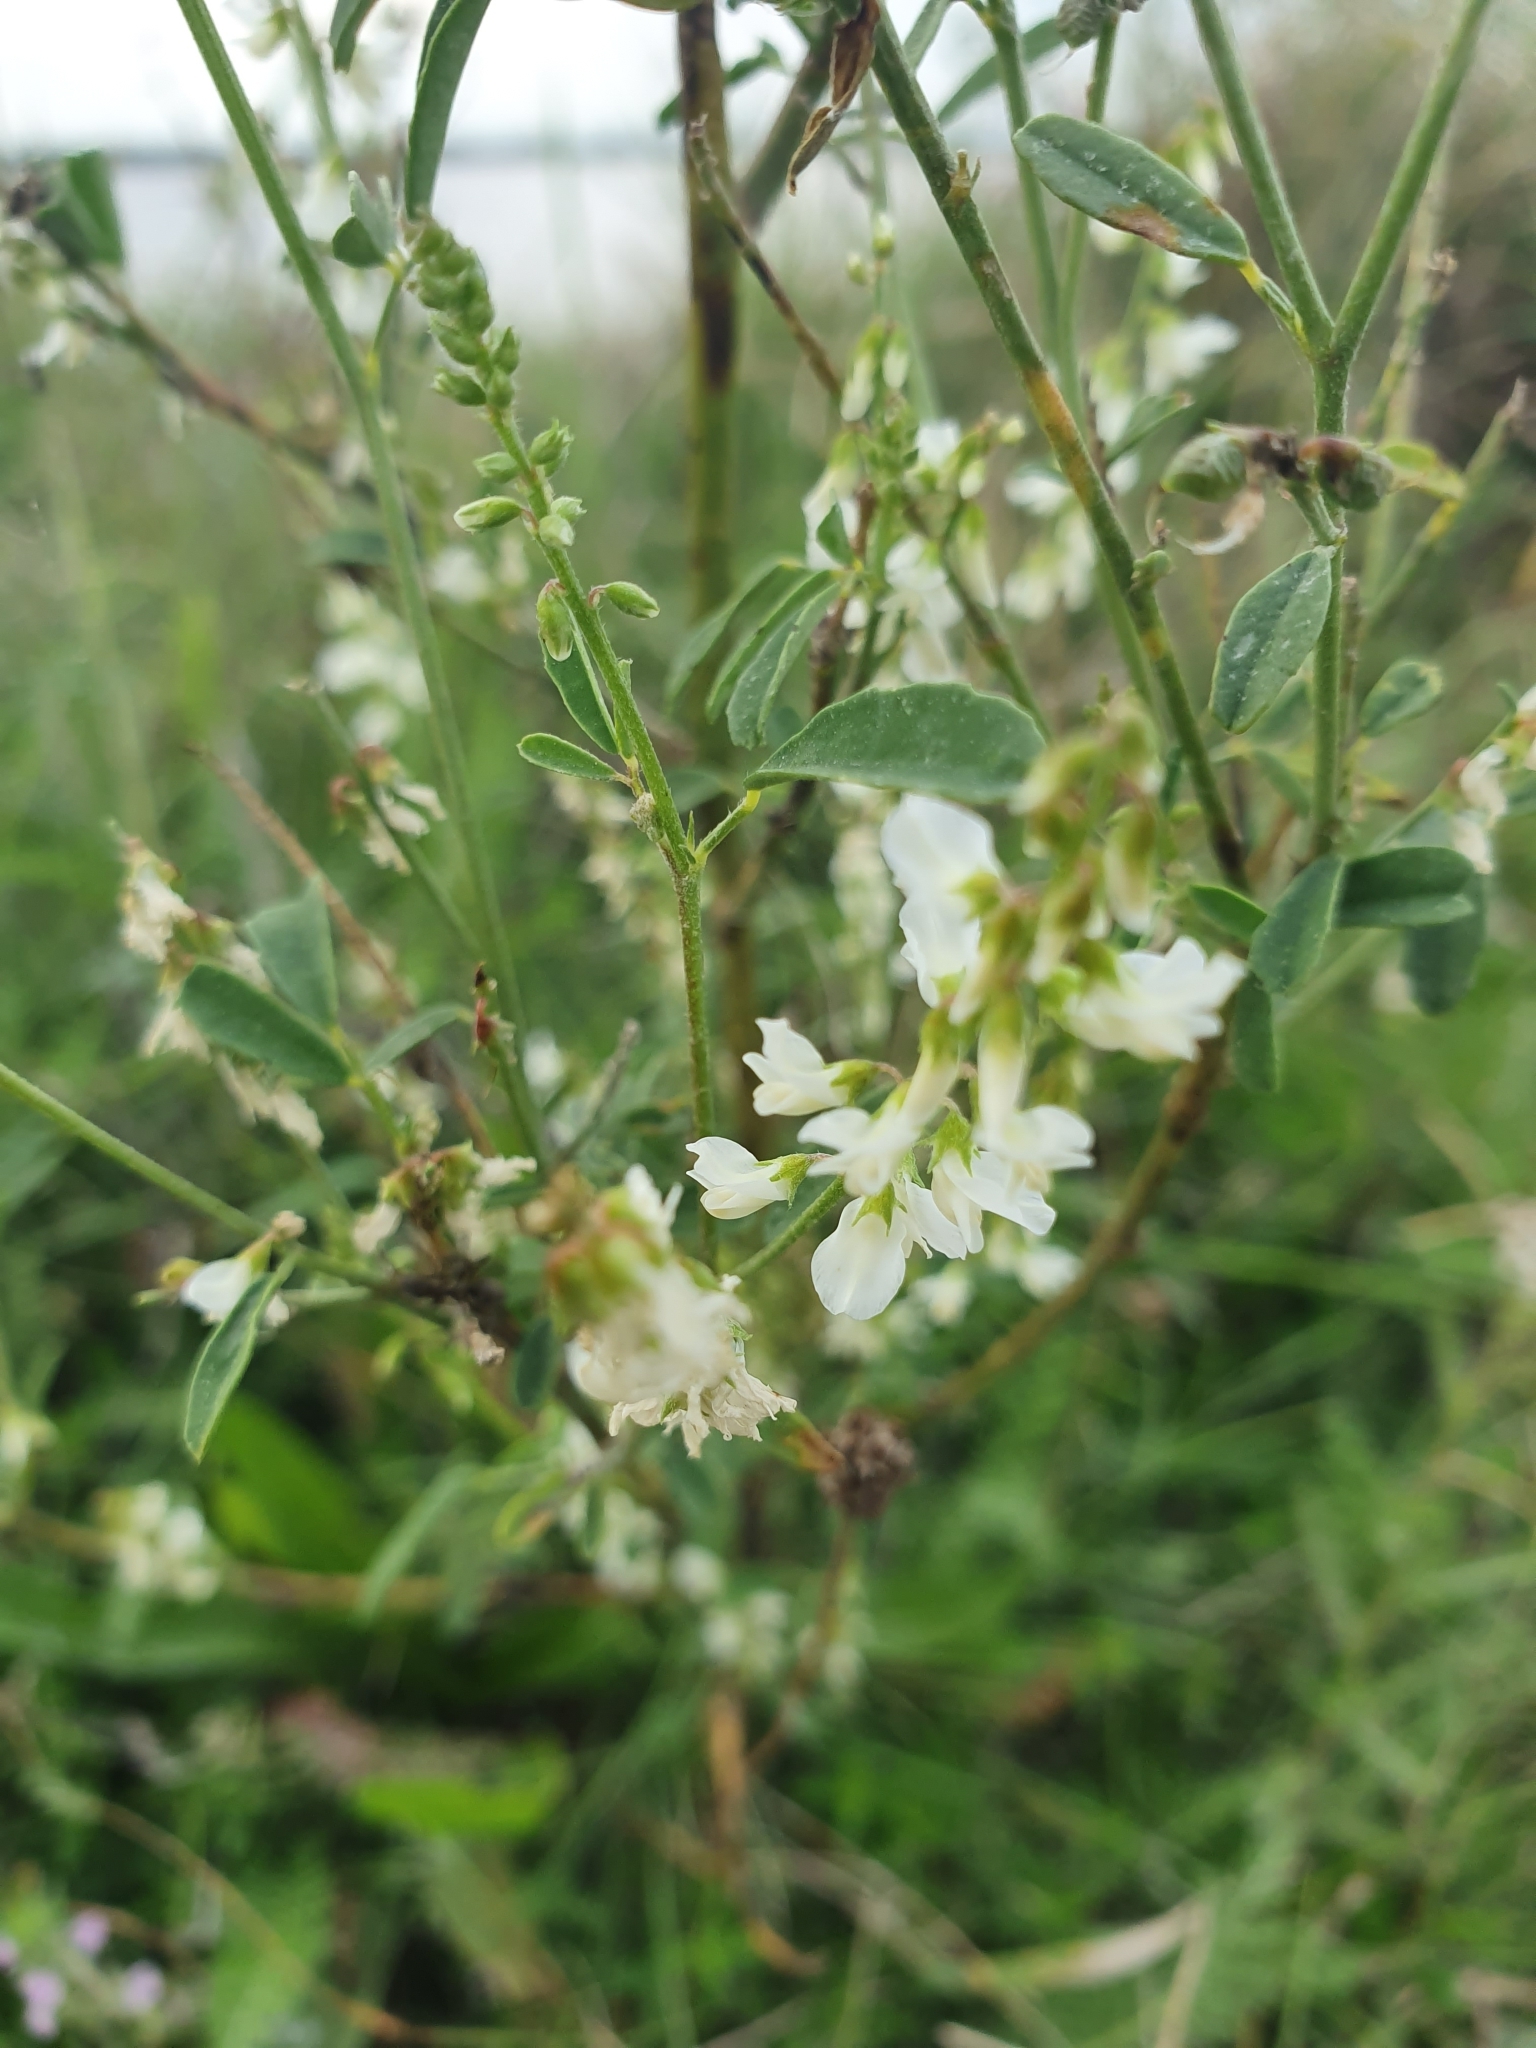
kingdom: Plantae
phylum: Tracheophyta
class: Magnoliopsida
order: Fabales
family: Fabaceae
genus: Melilotus
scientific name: Melilotus albus
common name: White melilot
